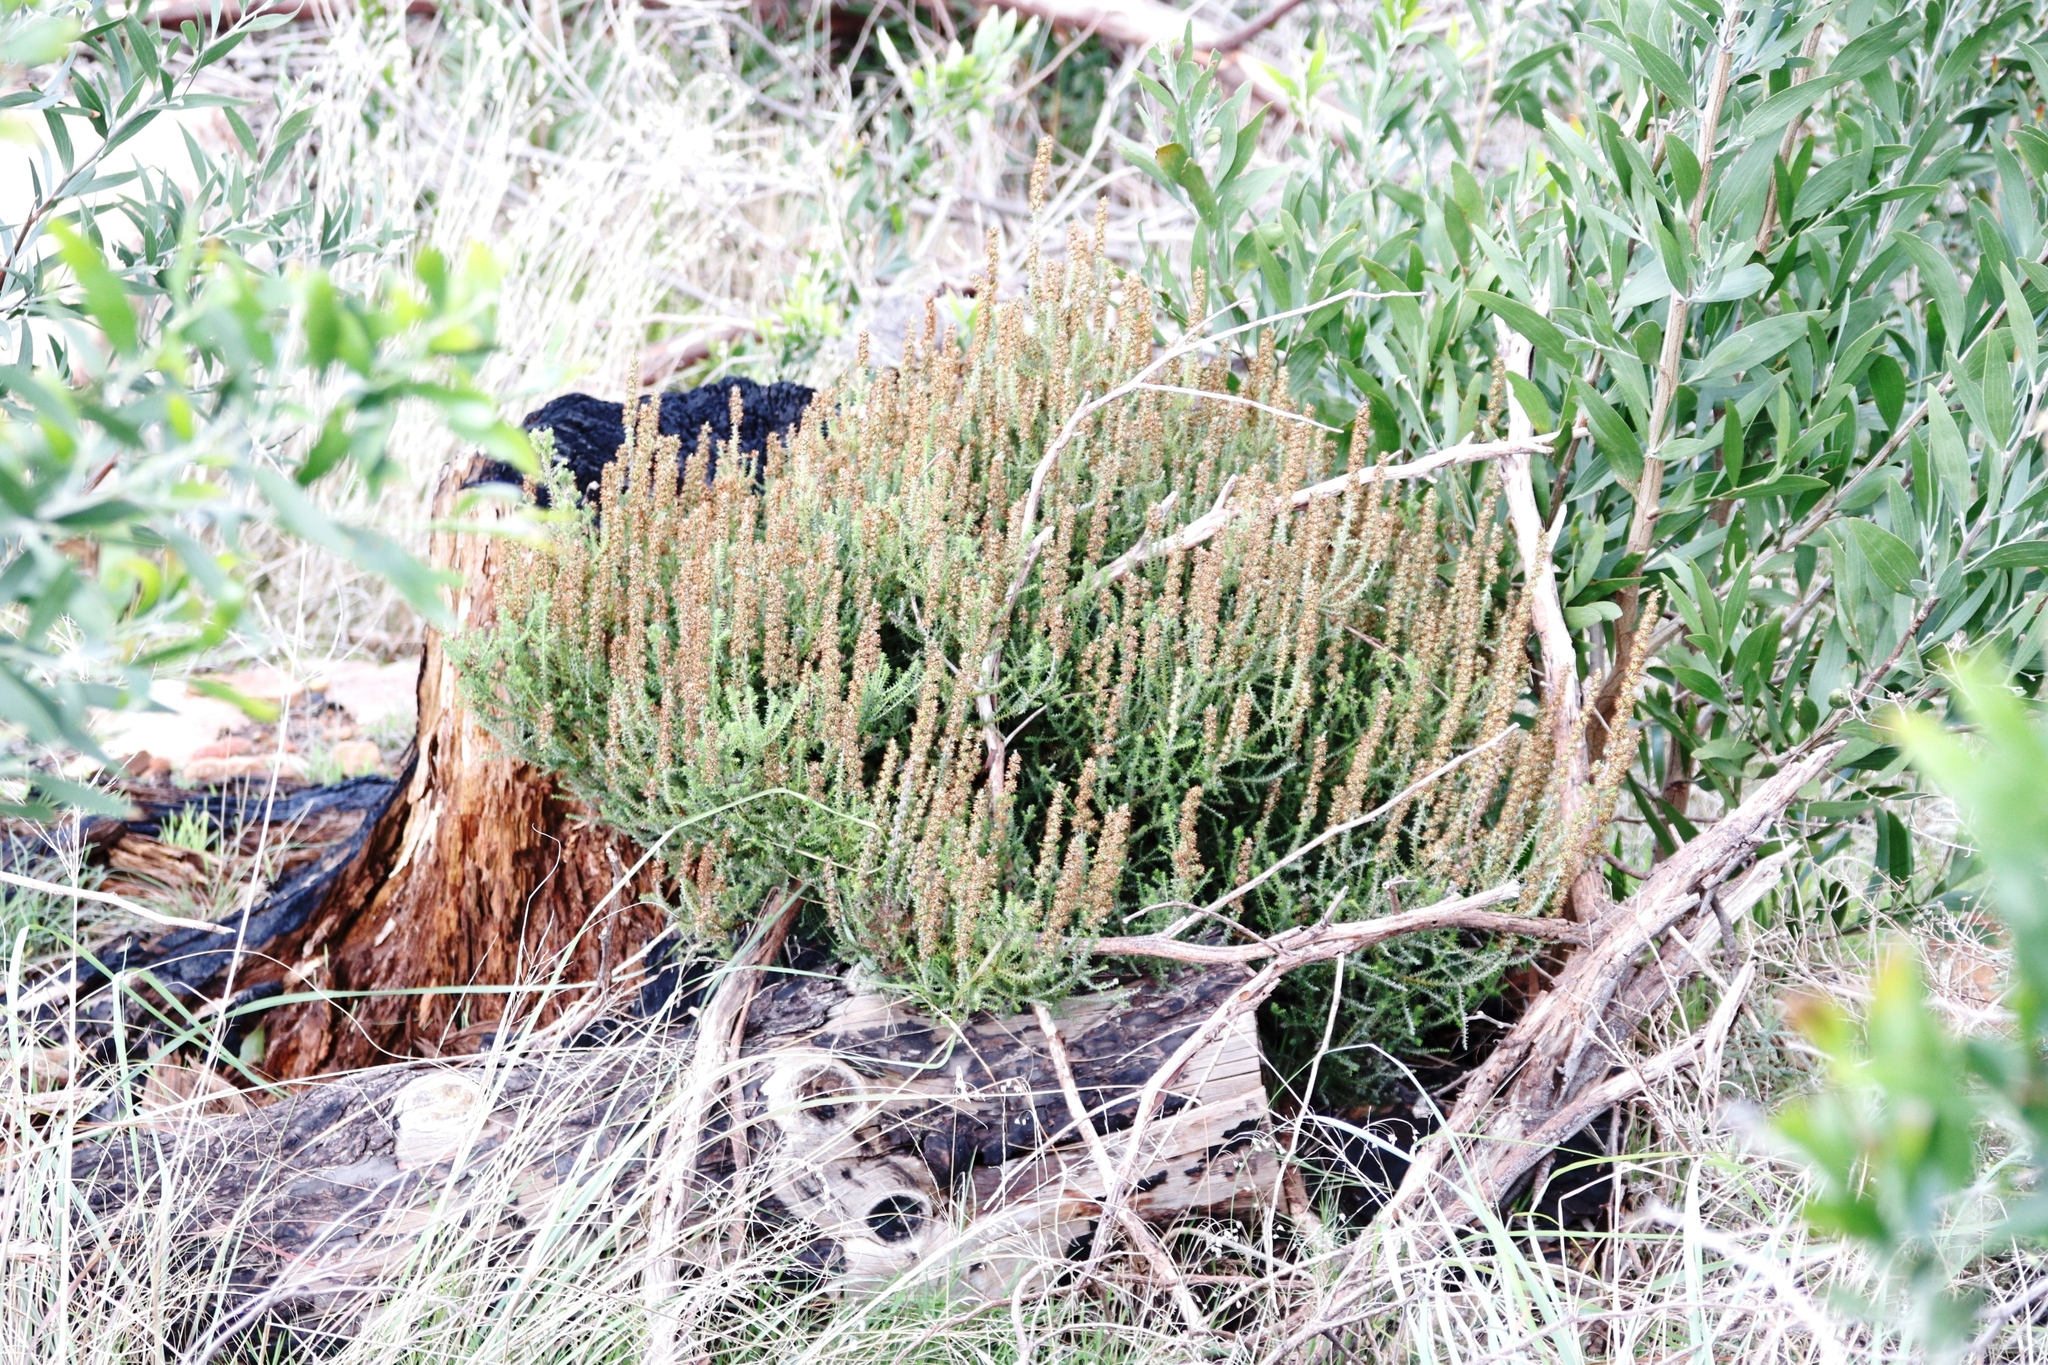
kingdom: Plantae
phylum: Tracheophyta
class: Magnoliopsida
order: Asterales
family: Asteraceae
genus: Seriphium
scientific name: Seriphium cinereum
